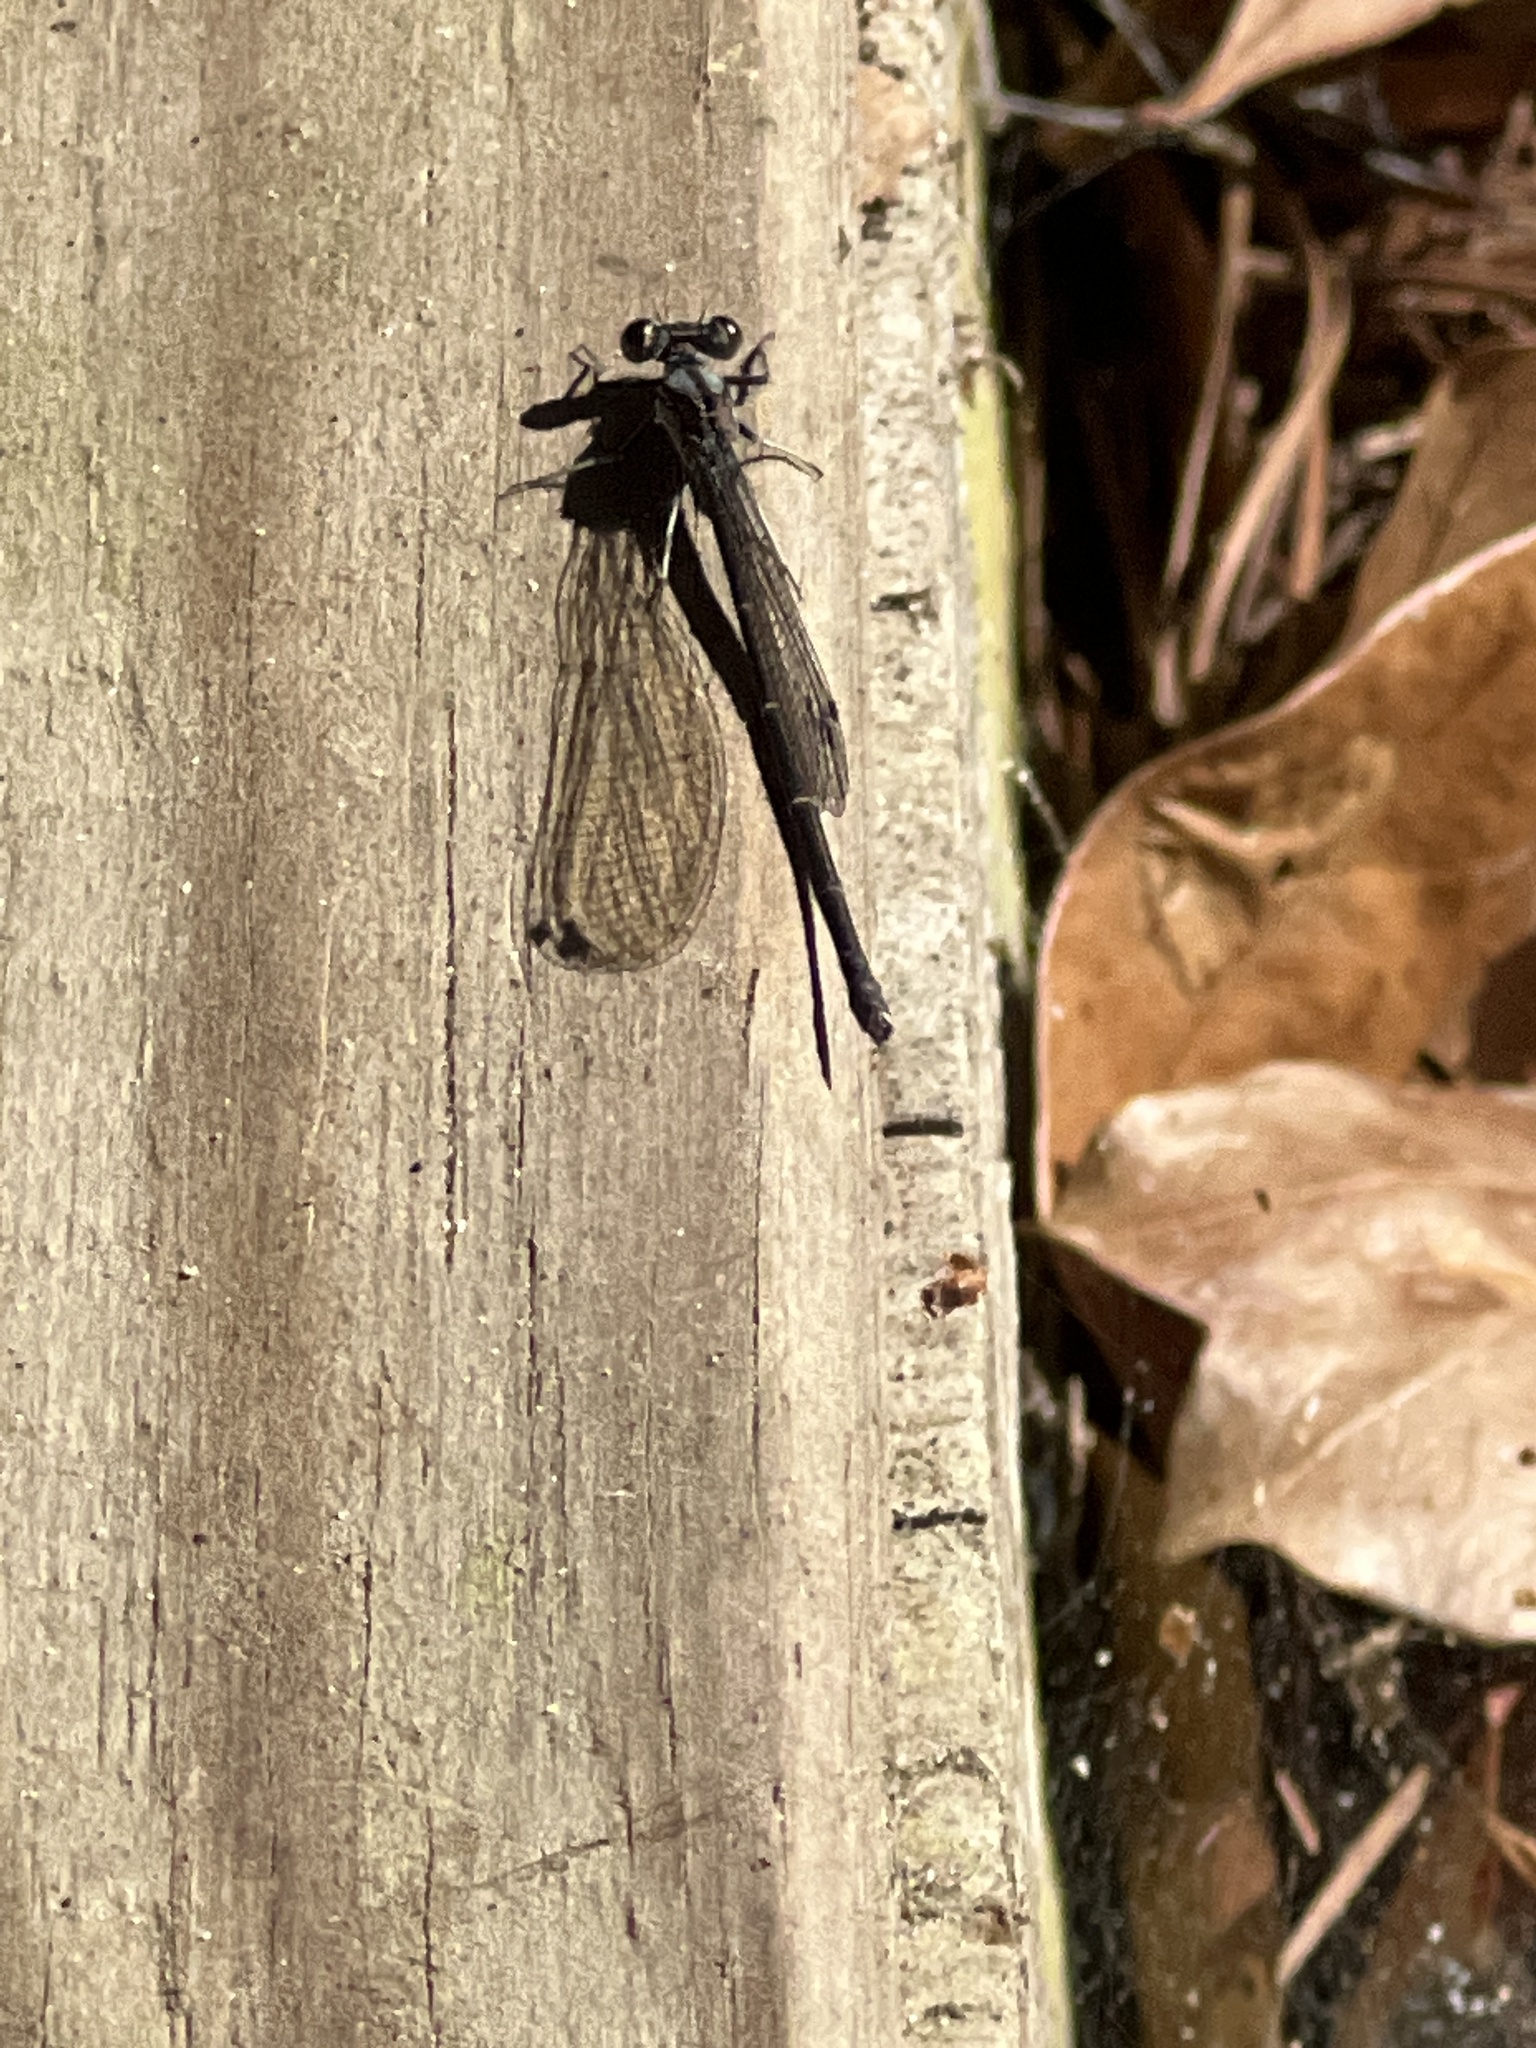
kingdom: Animalia
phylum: Arthropoda
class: Insecta
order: Odonata
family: Coenagrionidae
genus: Argia
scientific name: Argia tibialis
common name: Blue-tipped dancer
